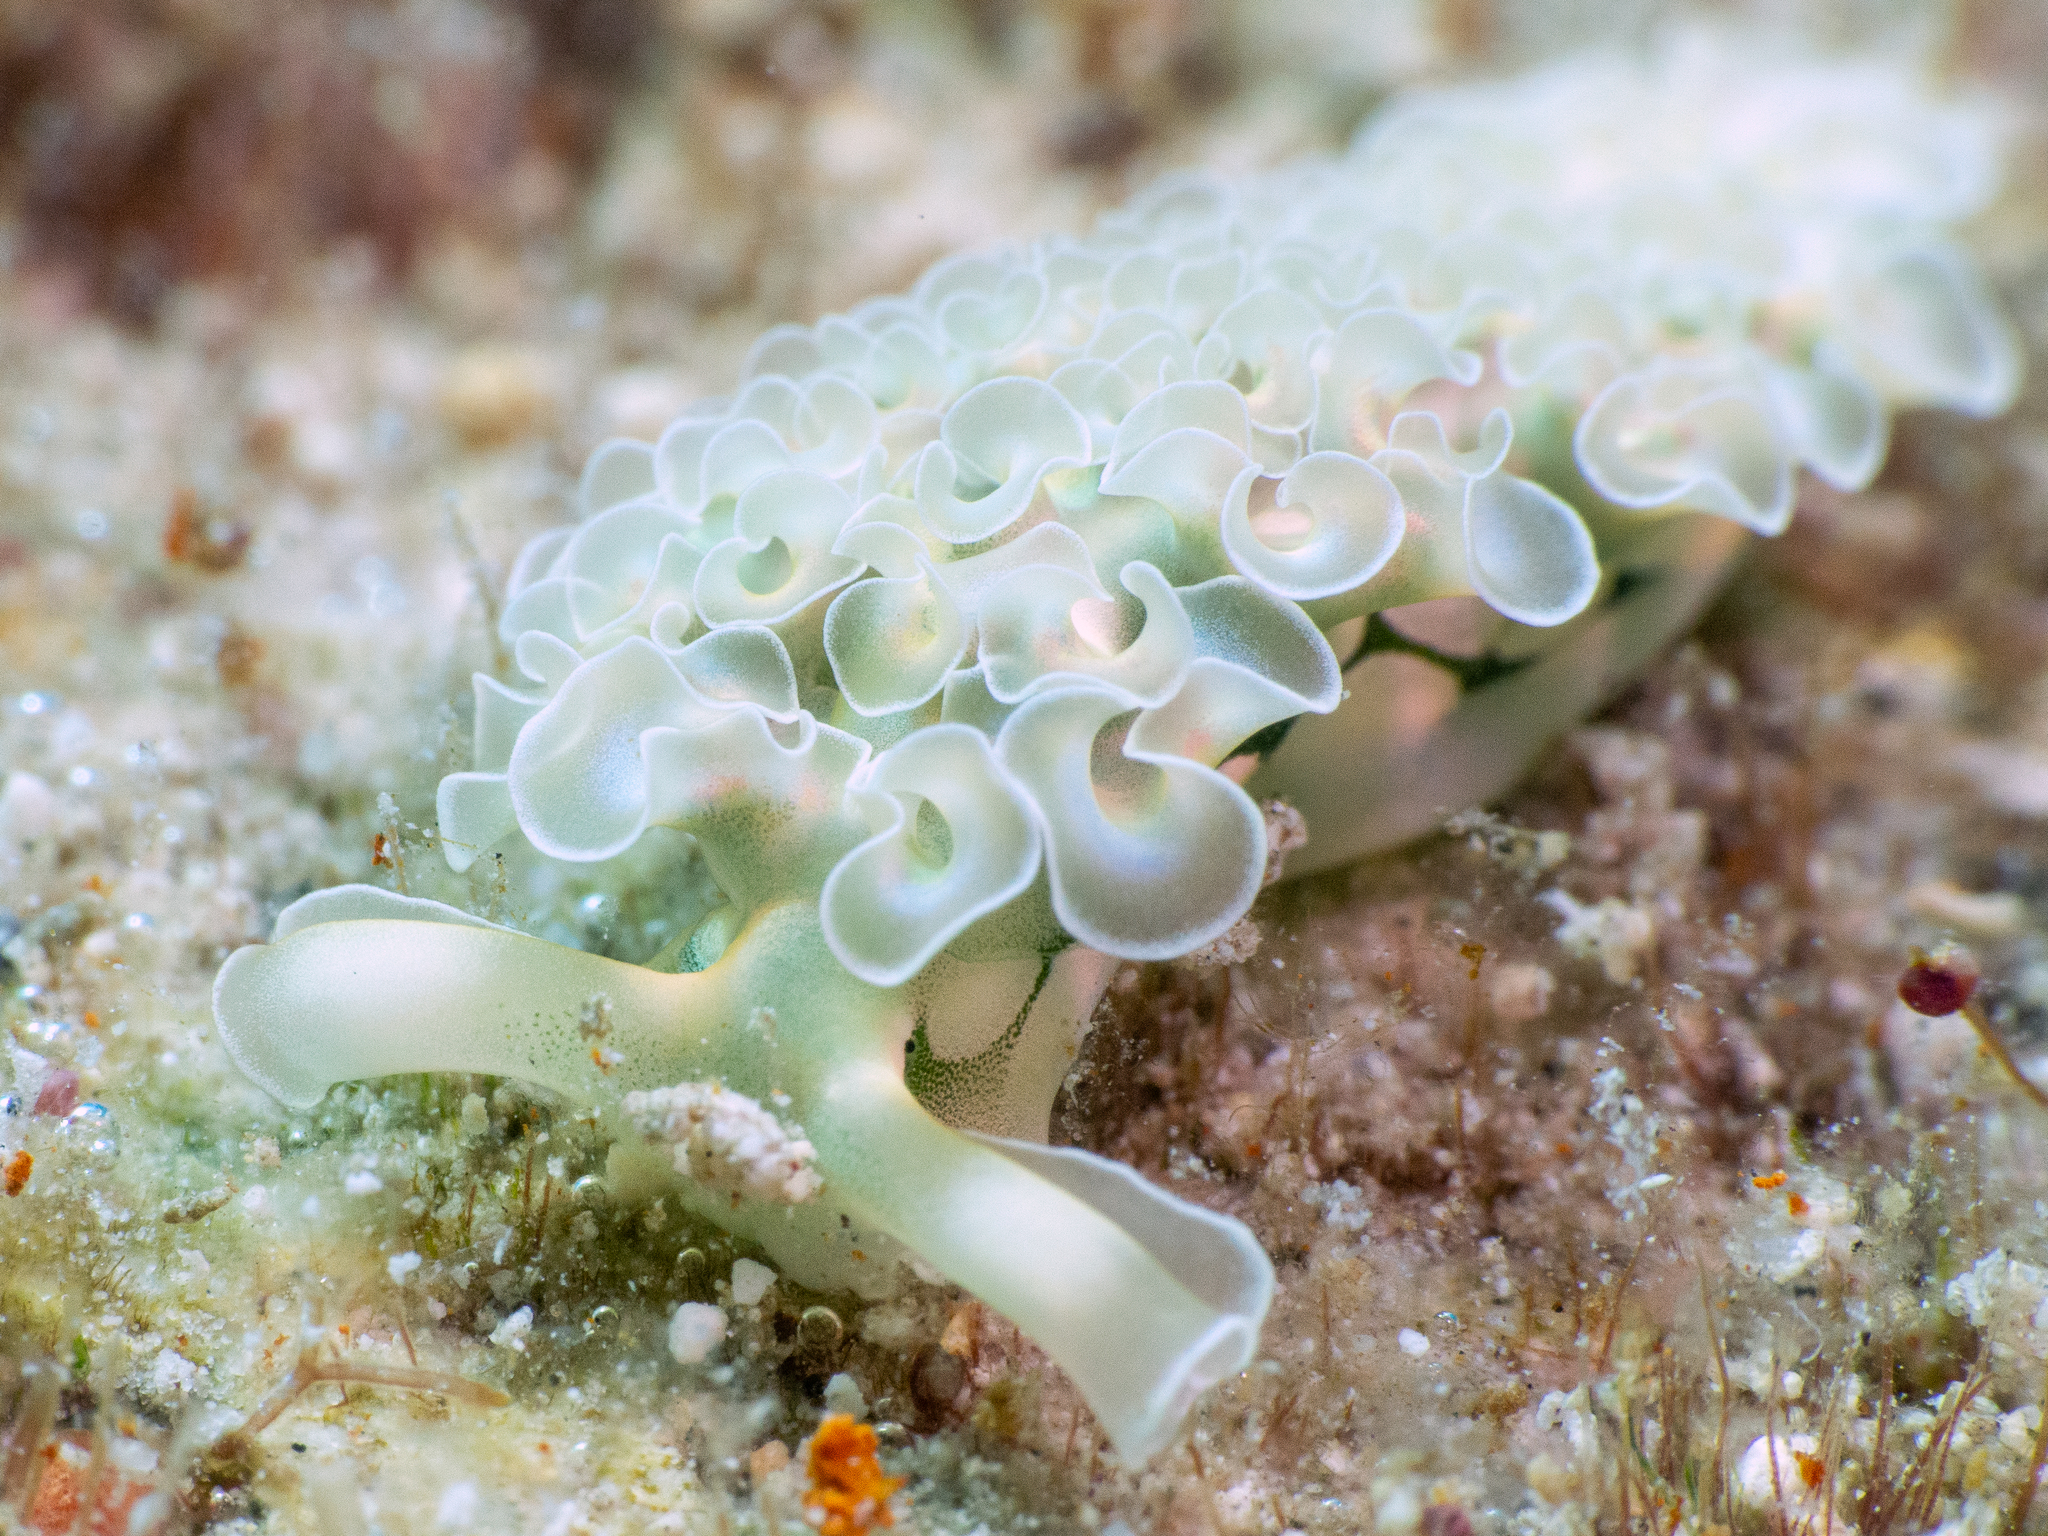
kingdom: Animalia
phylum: Mollusca
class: Gastropoda
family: Plakobranchidae
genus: Elysia
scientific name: Elysia crispata
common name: Lettuce slug
